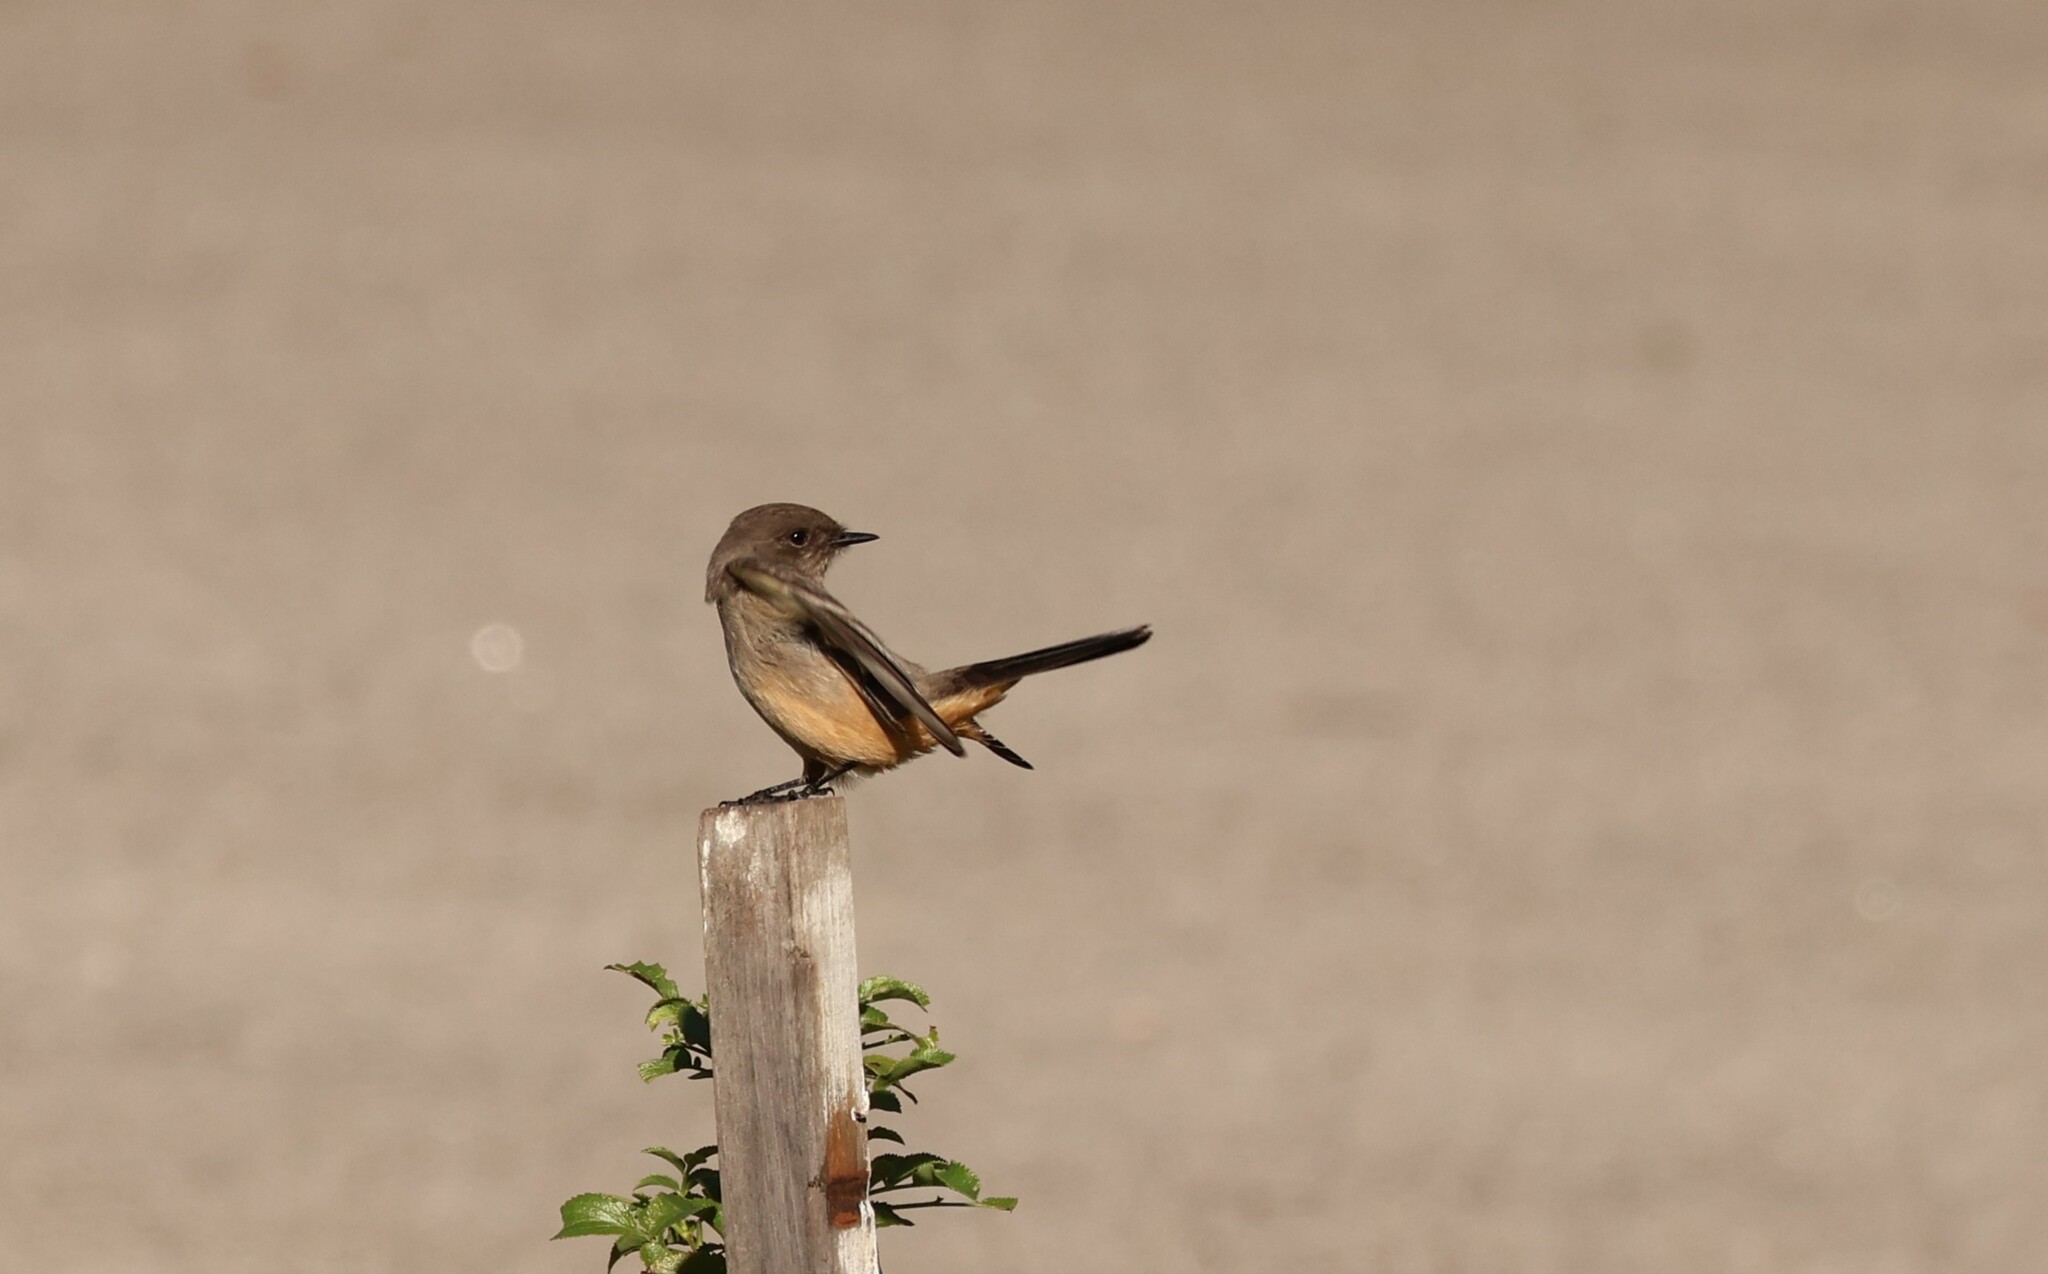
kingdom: Animalia
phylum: Chordata
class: Aves
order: Passeriformes
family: Tyrannidae
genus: Sayornis
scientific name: Sayornis saya
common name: Say's phoebe
